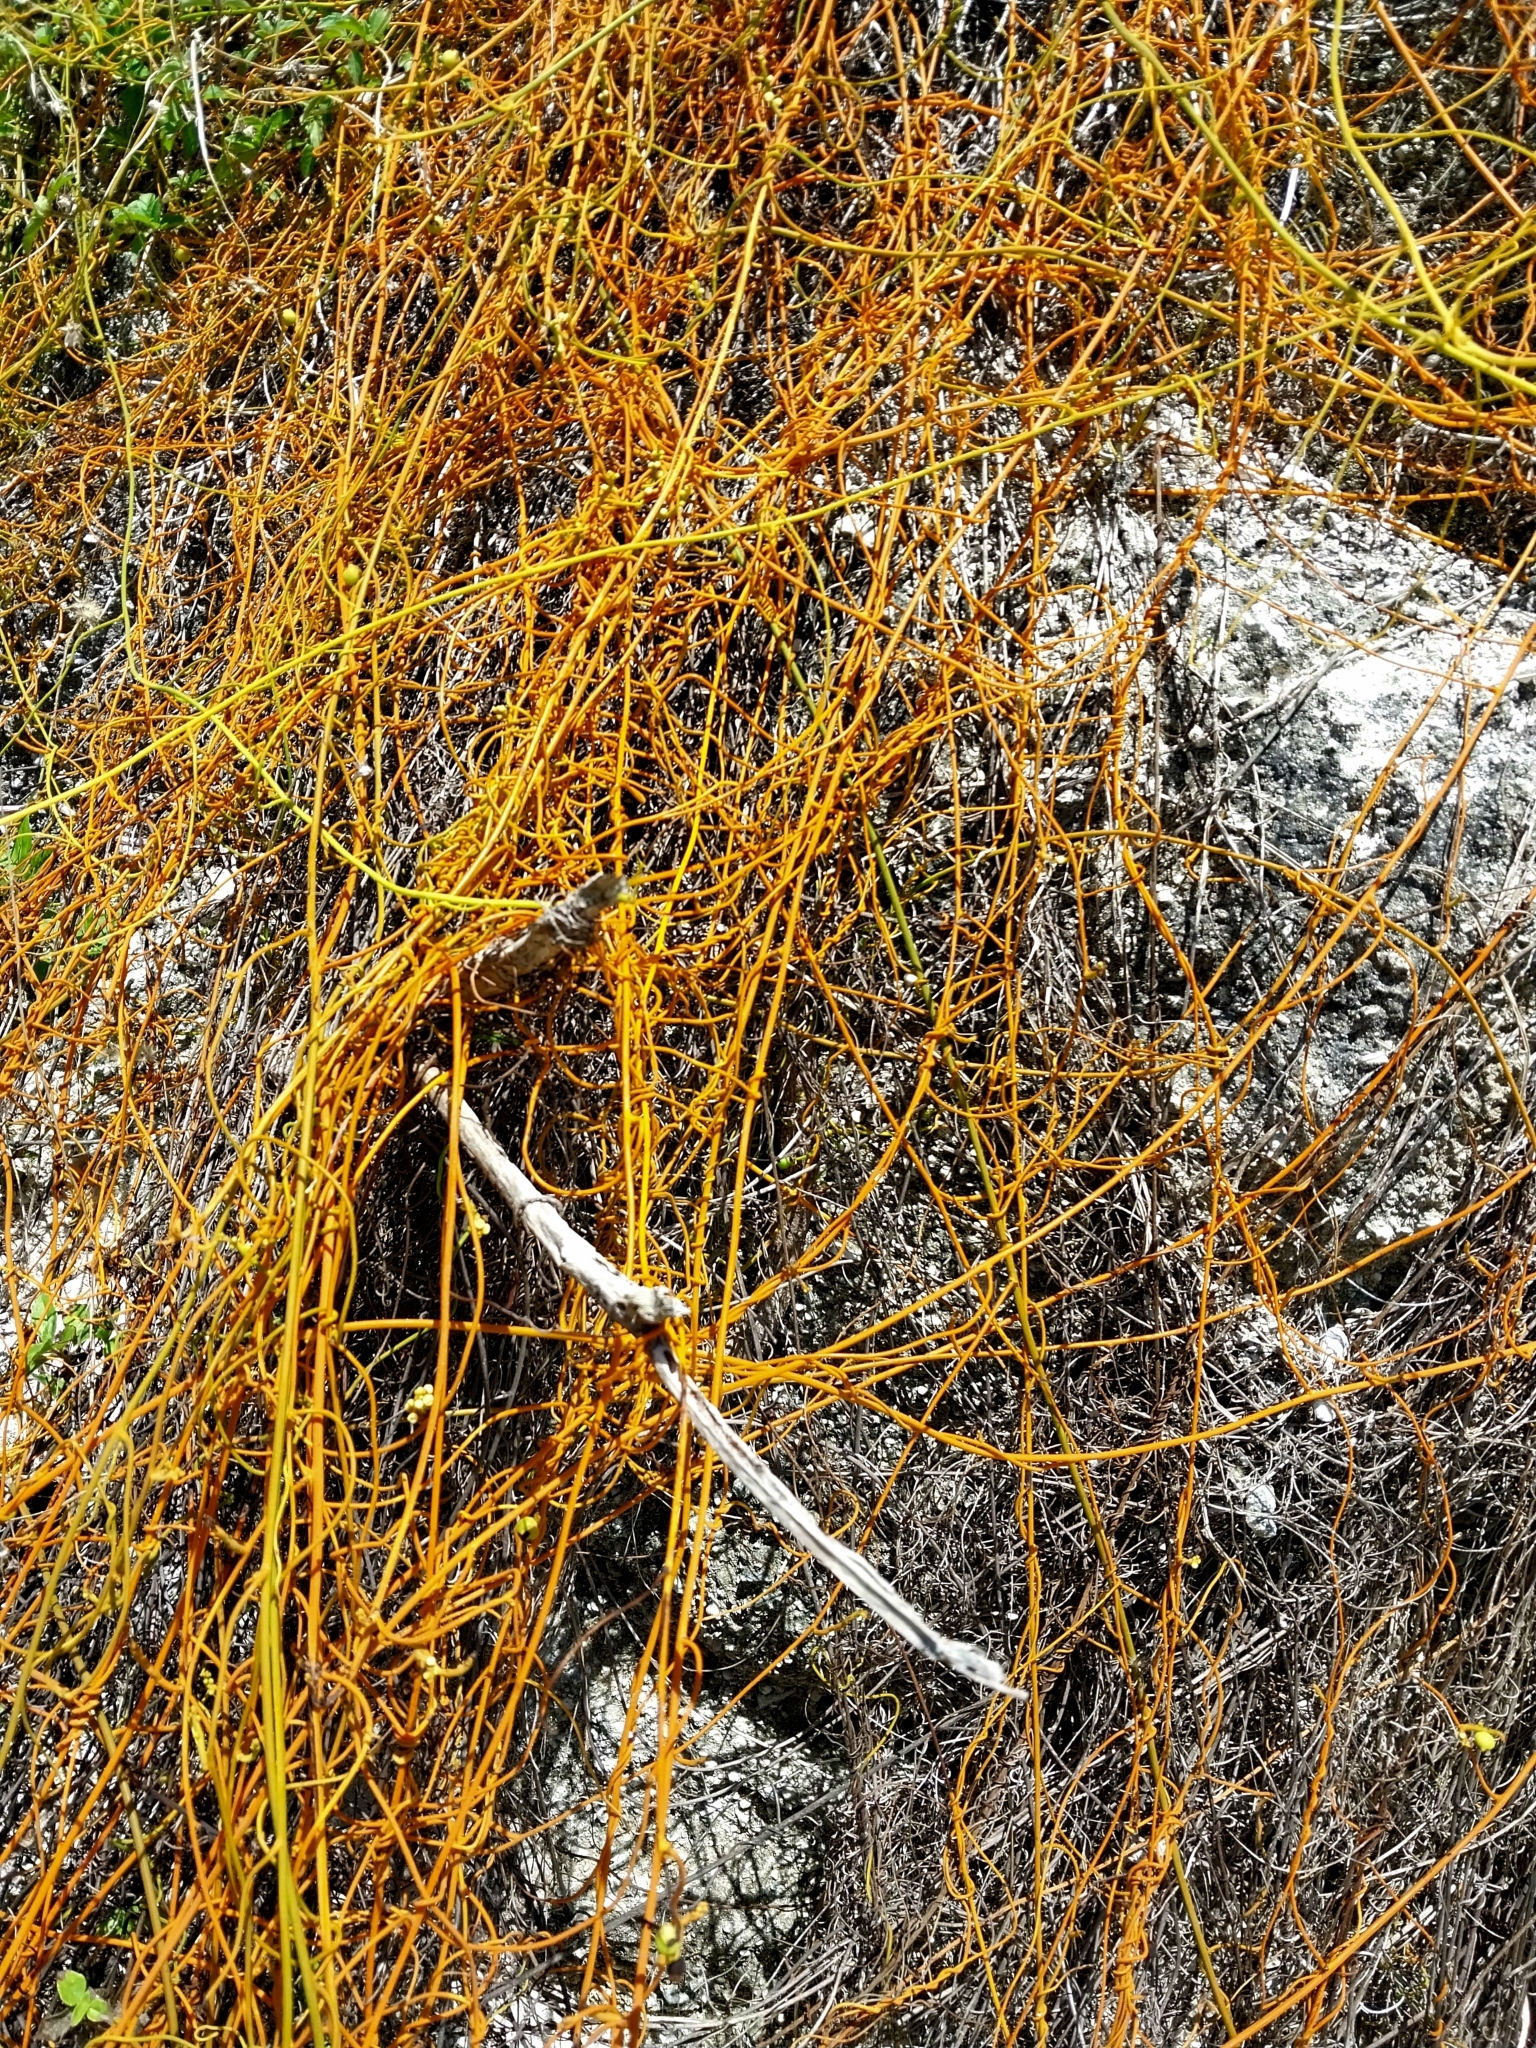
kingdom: Plantae
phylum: Tracheophyta
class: Magnoliopsida
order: Laurales
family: Lauraceae
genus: Cassytha
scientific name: Cassytha filiformis
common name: Dodder-laurel
